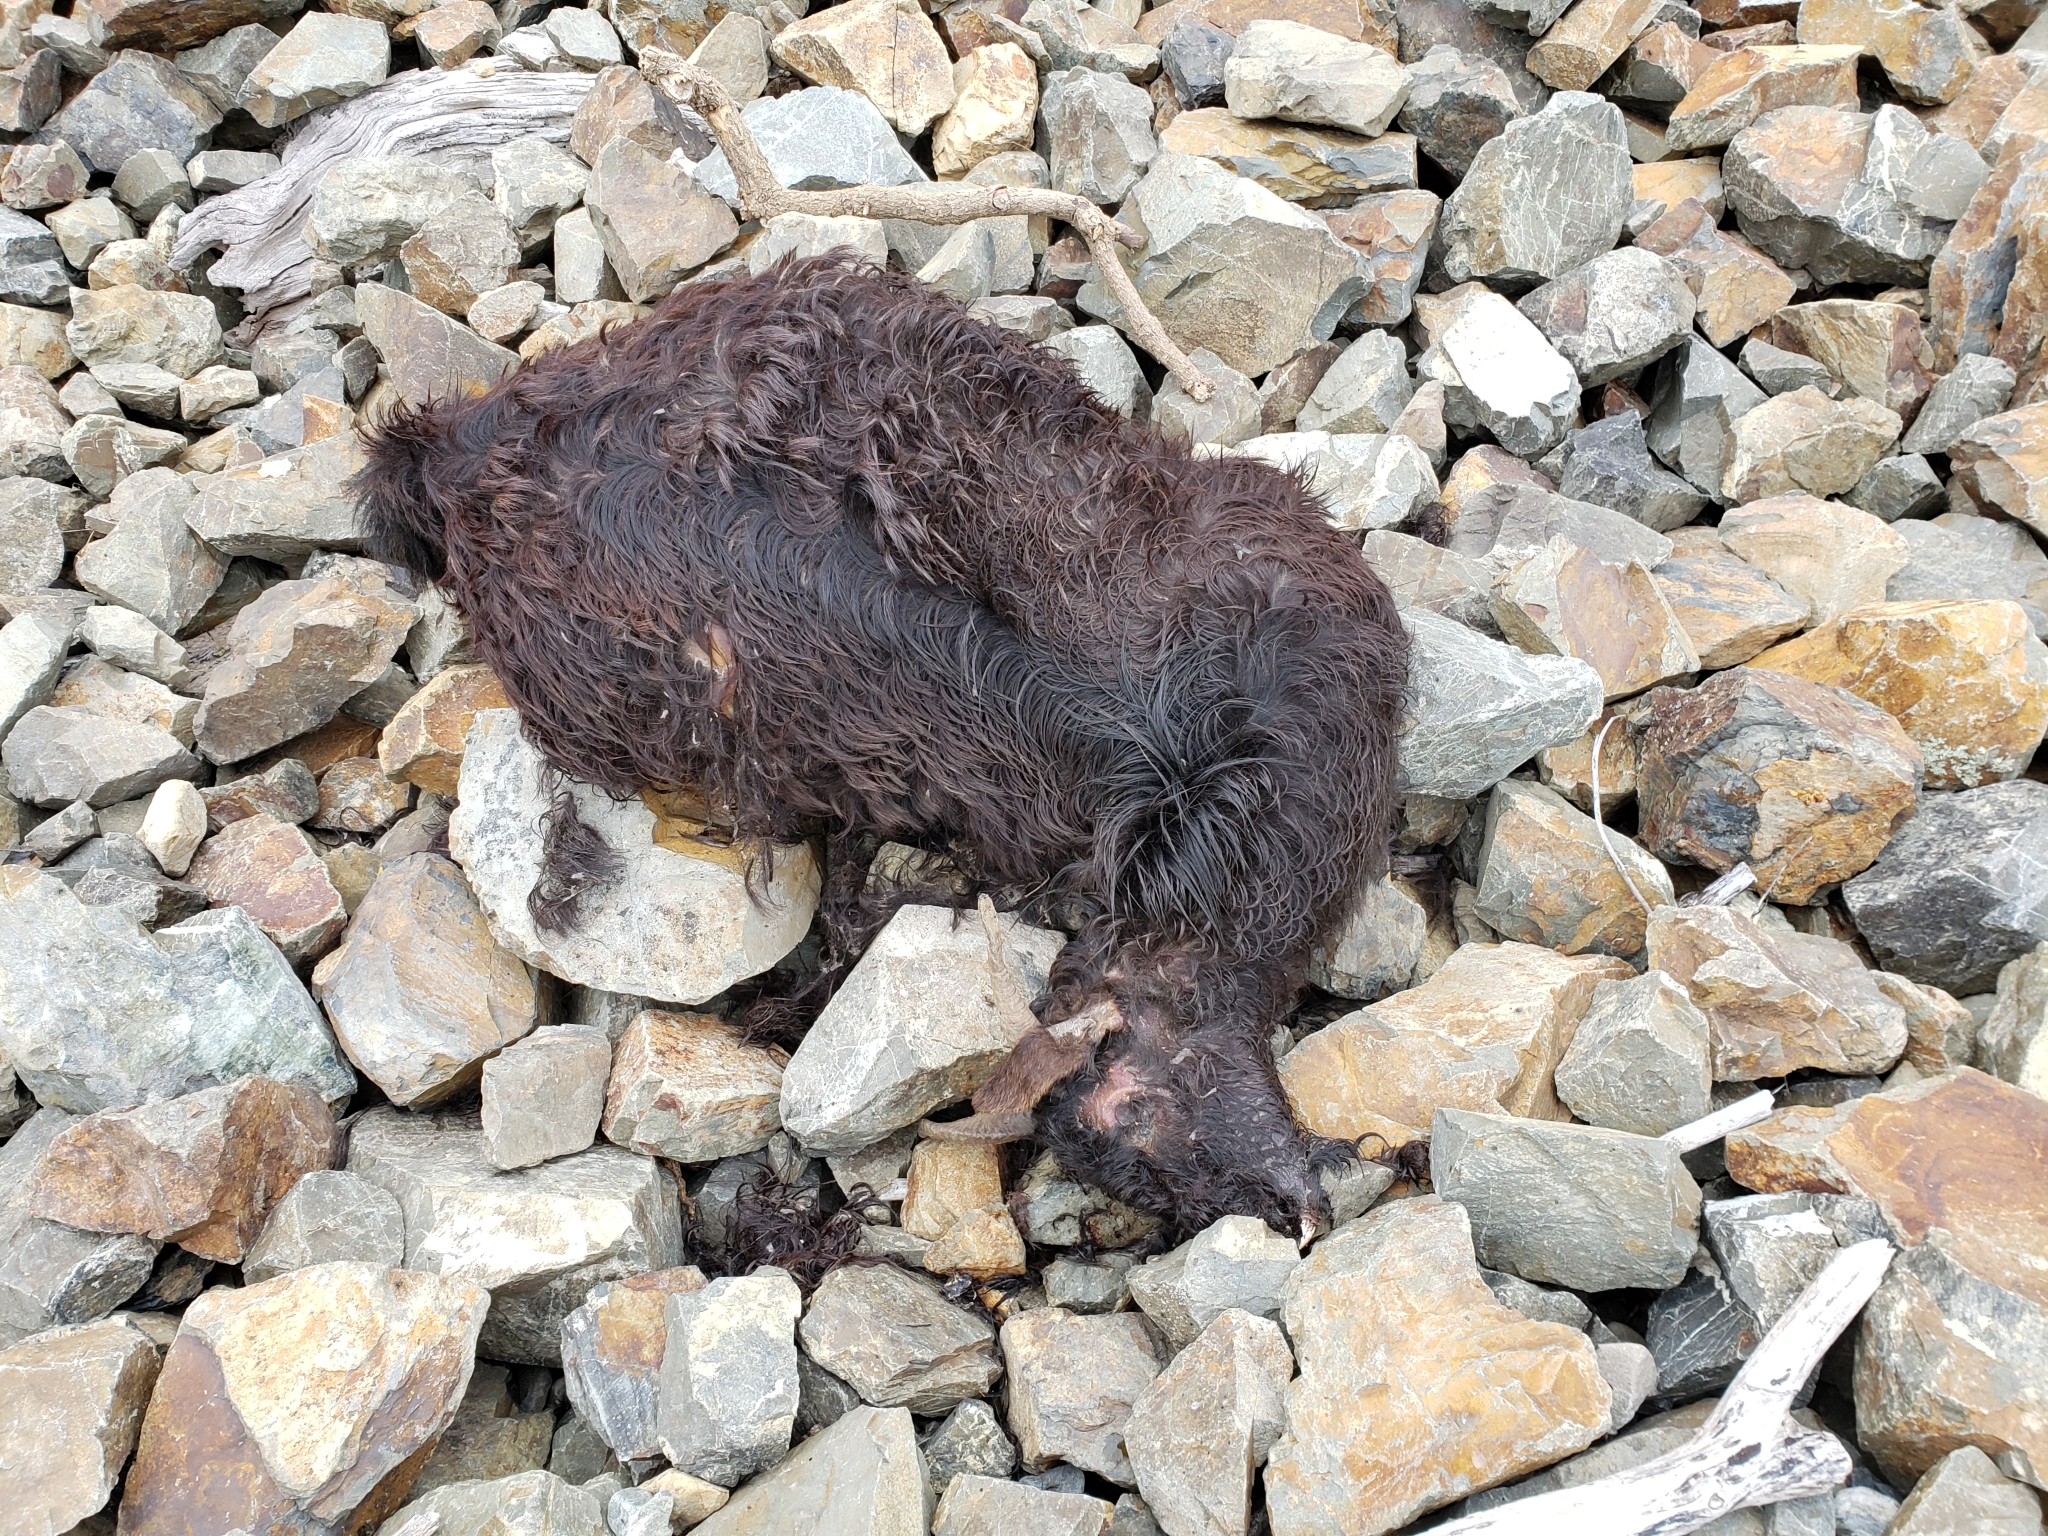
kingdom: Animalia
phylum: Chordata
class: Mammalia
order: Artiodactyla
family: Bovidae
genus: Capra
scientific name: Capra hircus
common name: Domestic goat
